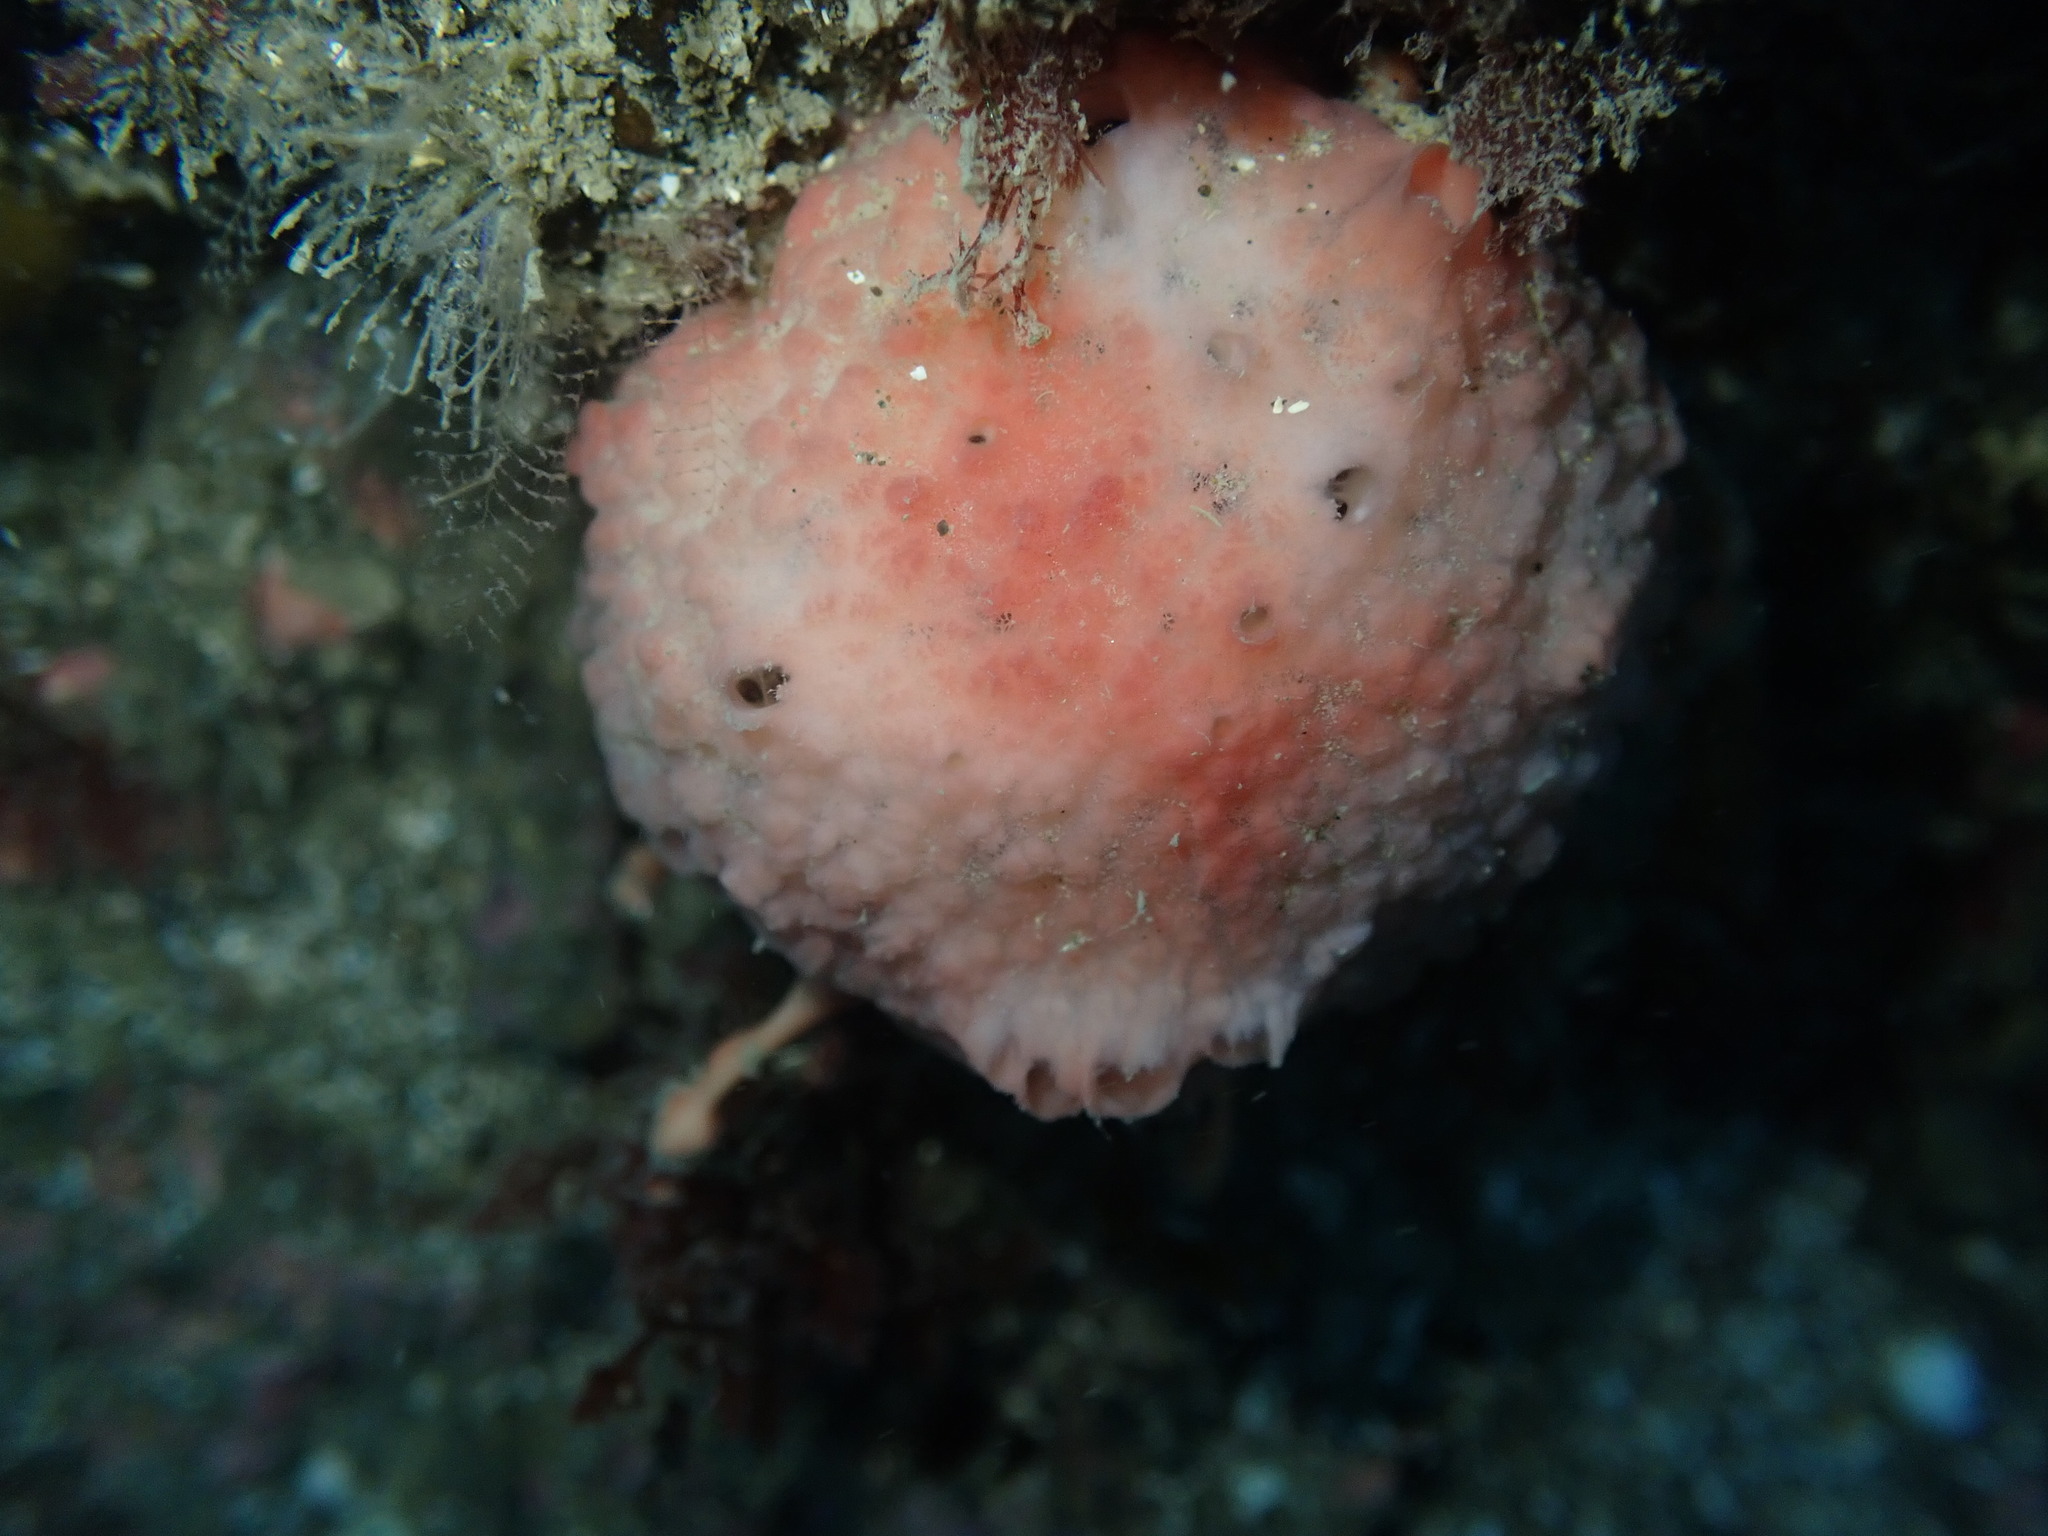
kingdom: Animalia
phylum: Porifera
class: Demospongiae
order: Tethyida
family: Tethyidae
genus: Tethya
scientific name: Tethya bergquistae
